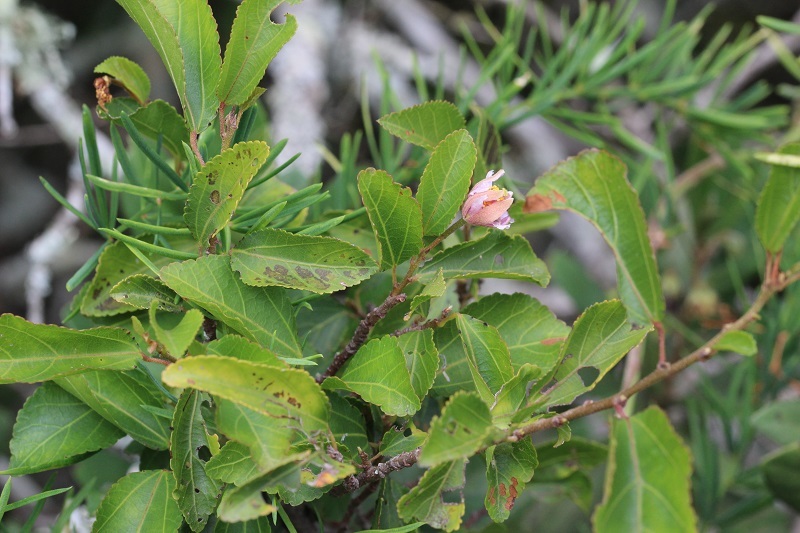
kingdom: Plantae
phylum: Tracheophyta
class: Magnoliopsida
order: Malvales
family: Malvaceae
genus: Grewia
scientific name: Grewia occidentalis
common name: Crossberry
